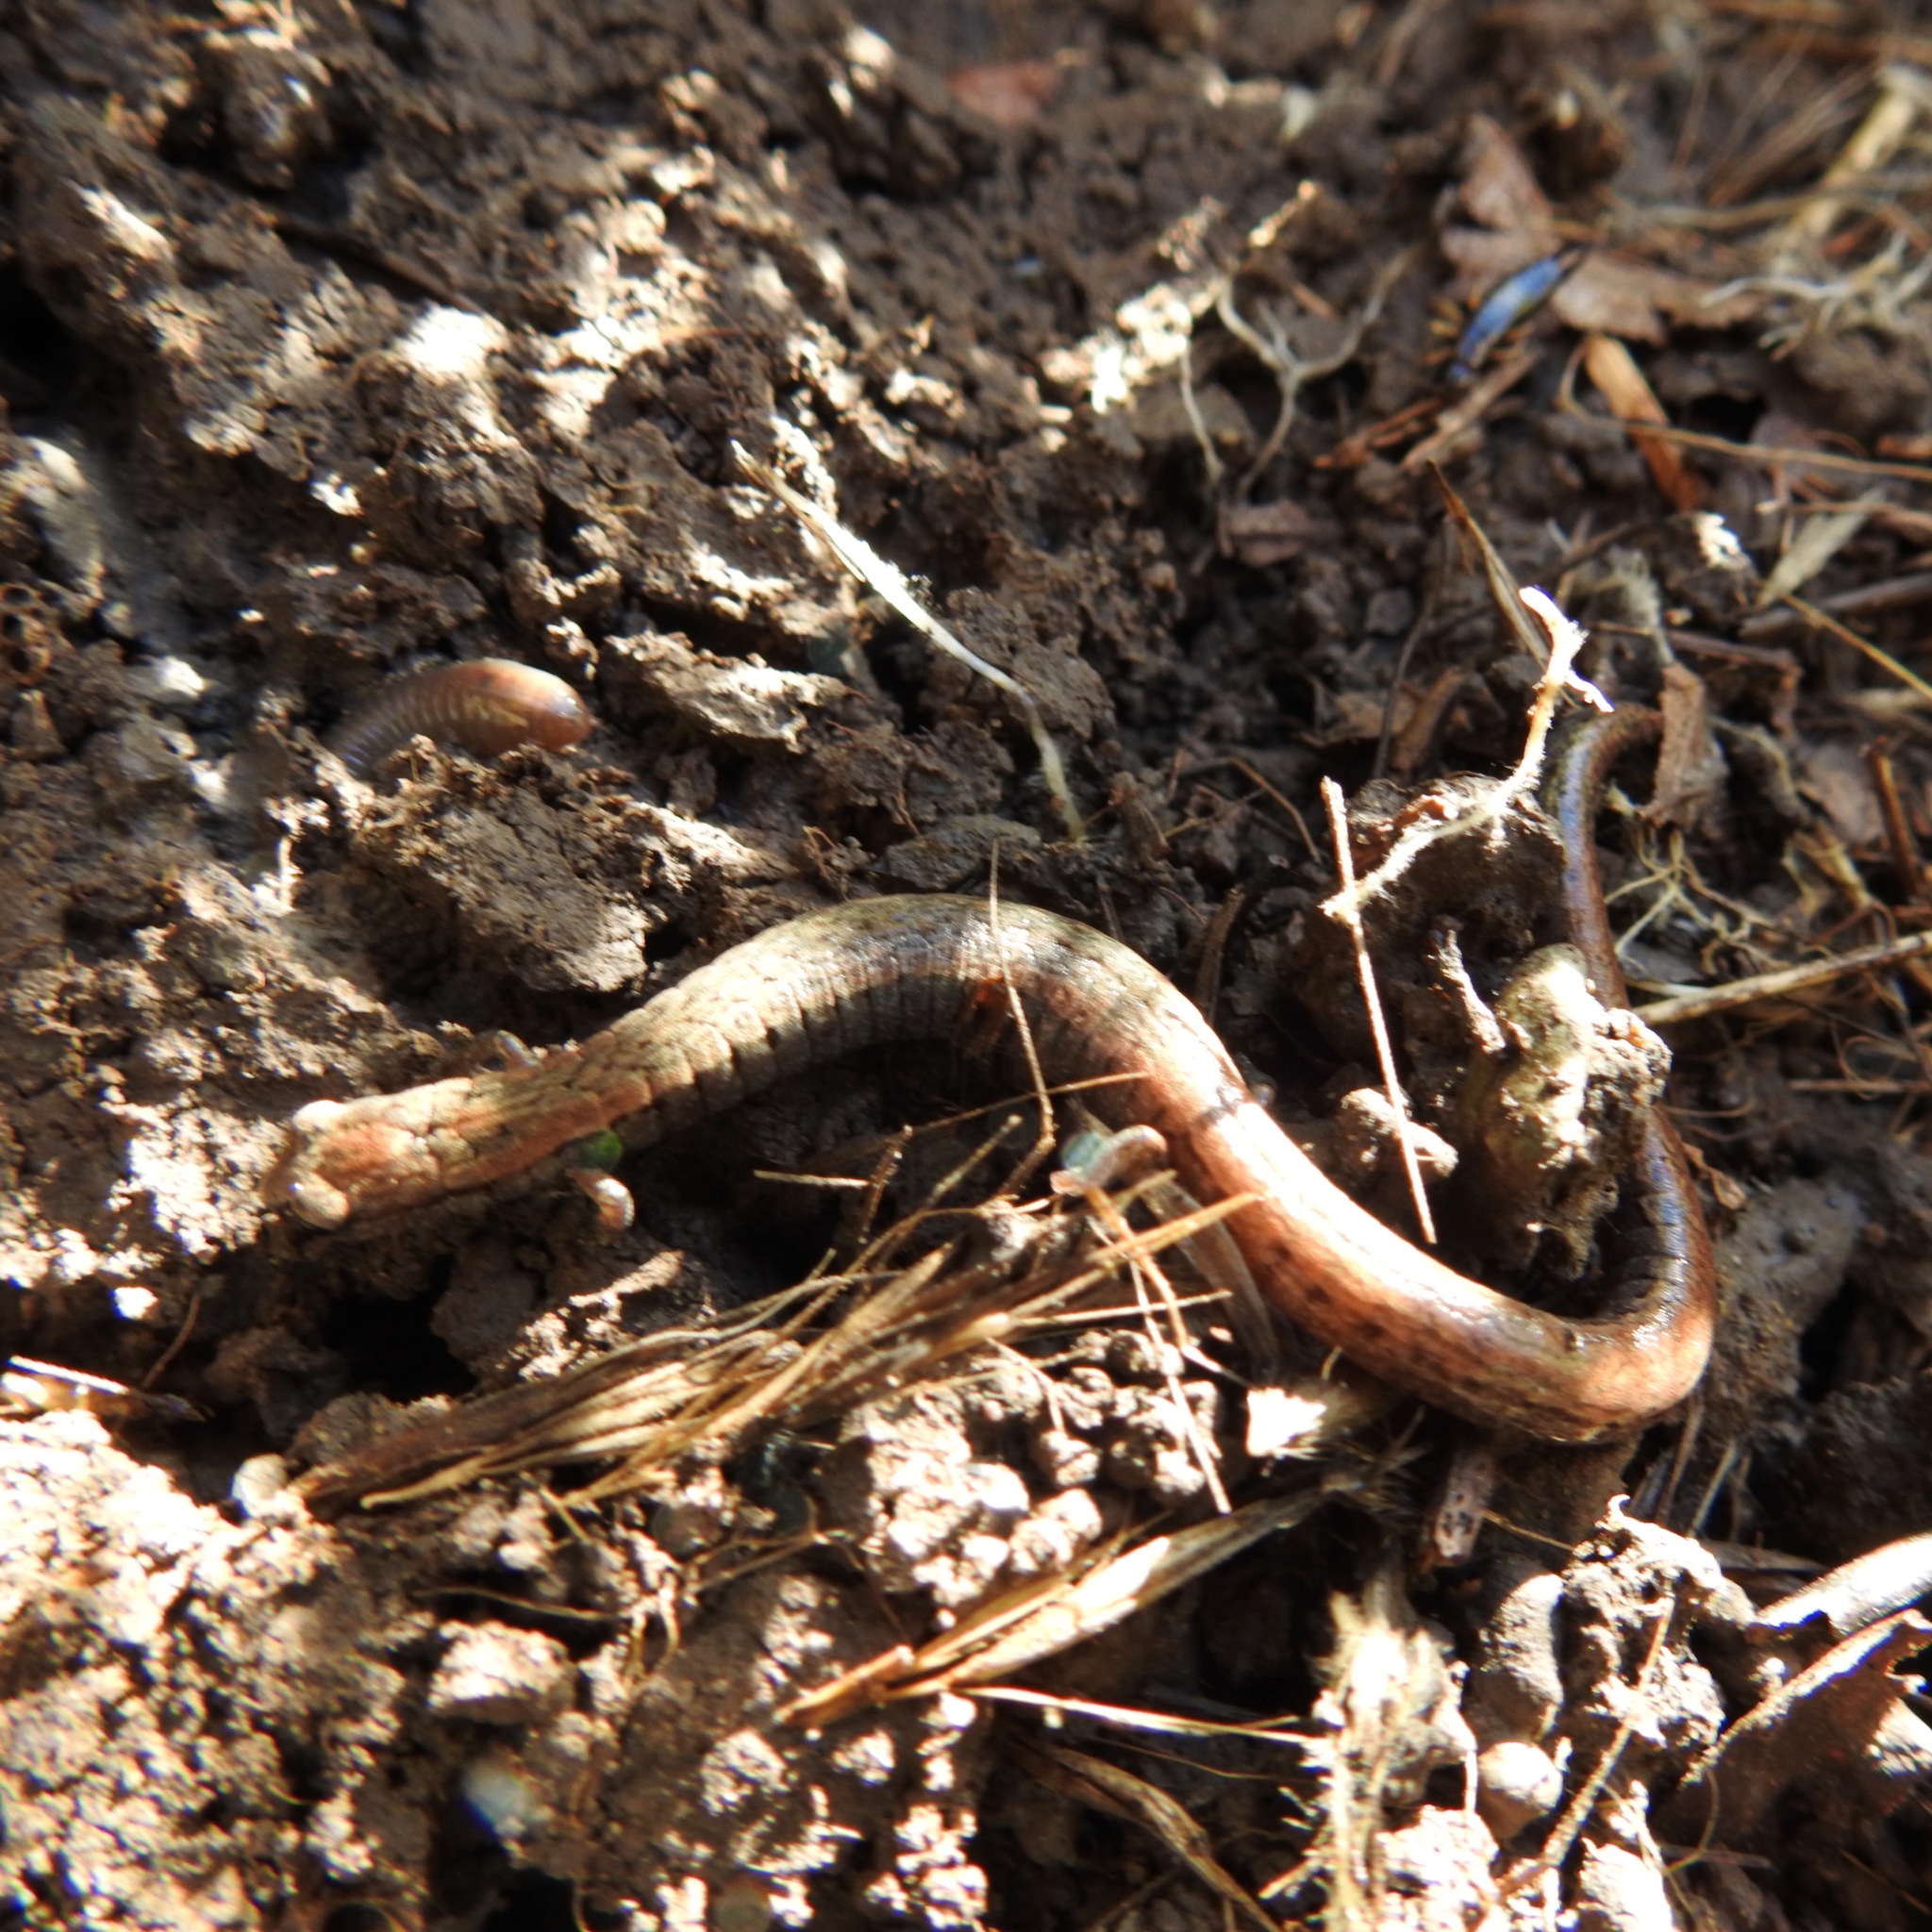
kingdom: Animalia
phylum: Chordata
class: Amphibia
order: Caudata
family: Plethodontidae
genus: Batrachoseps
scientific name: Batrachoseps attenuatus
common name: California slender salamander
